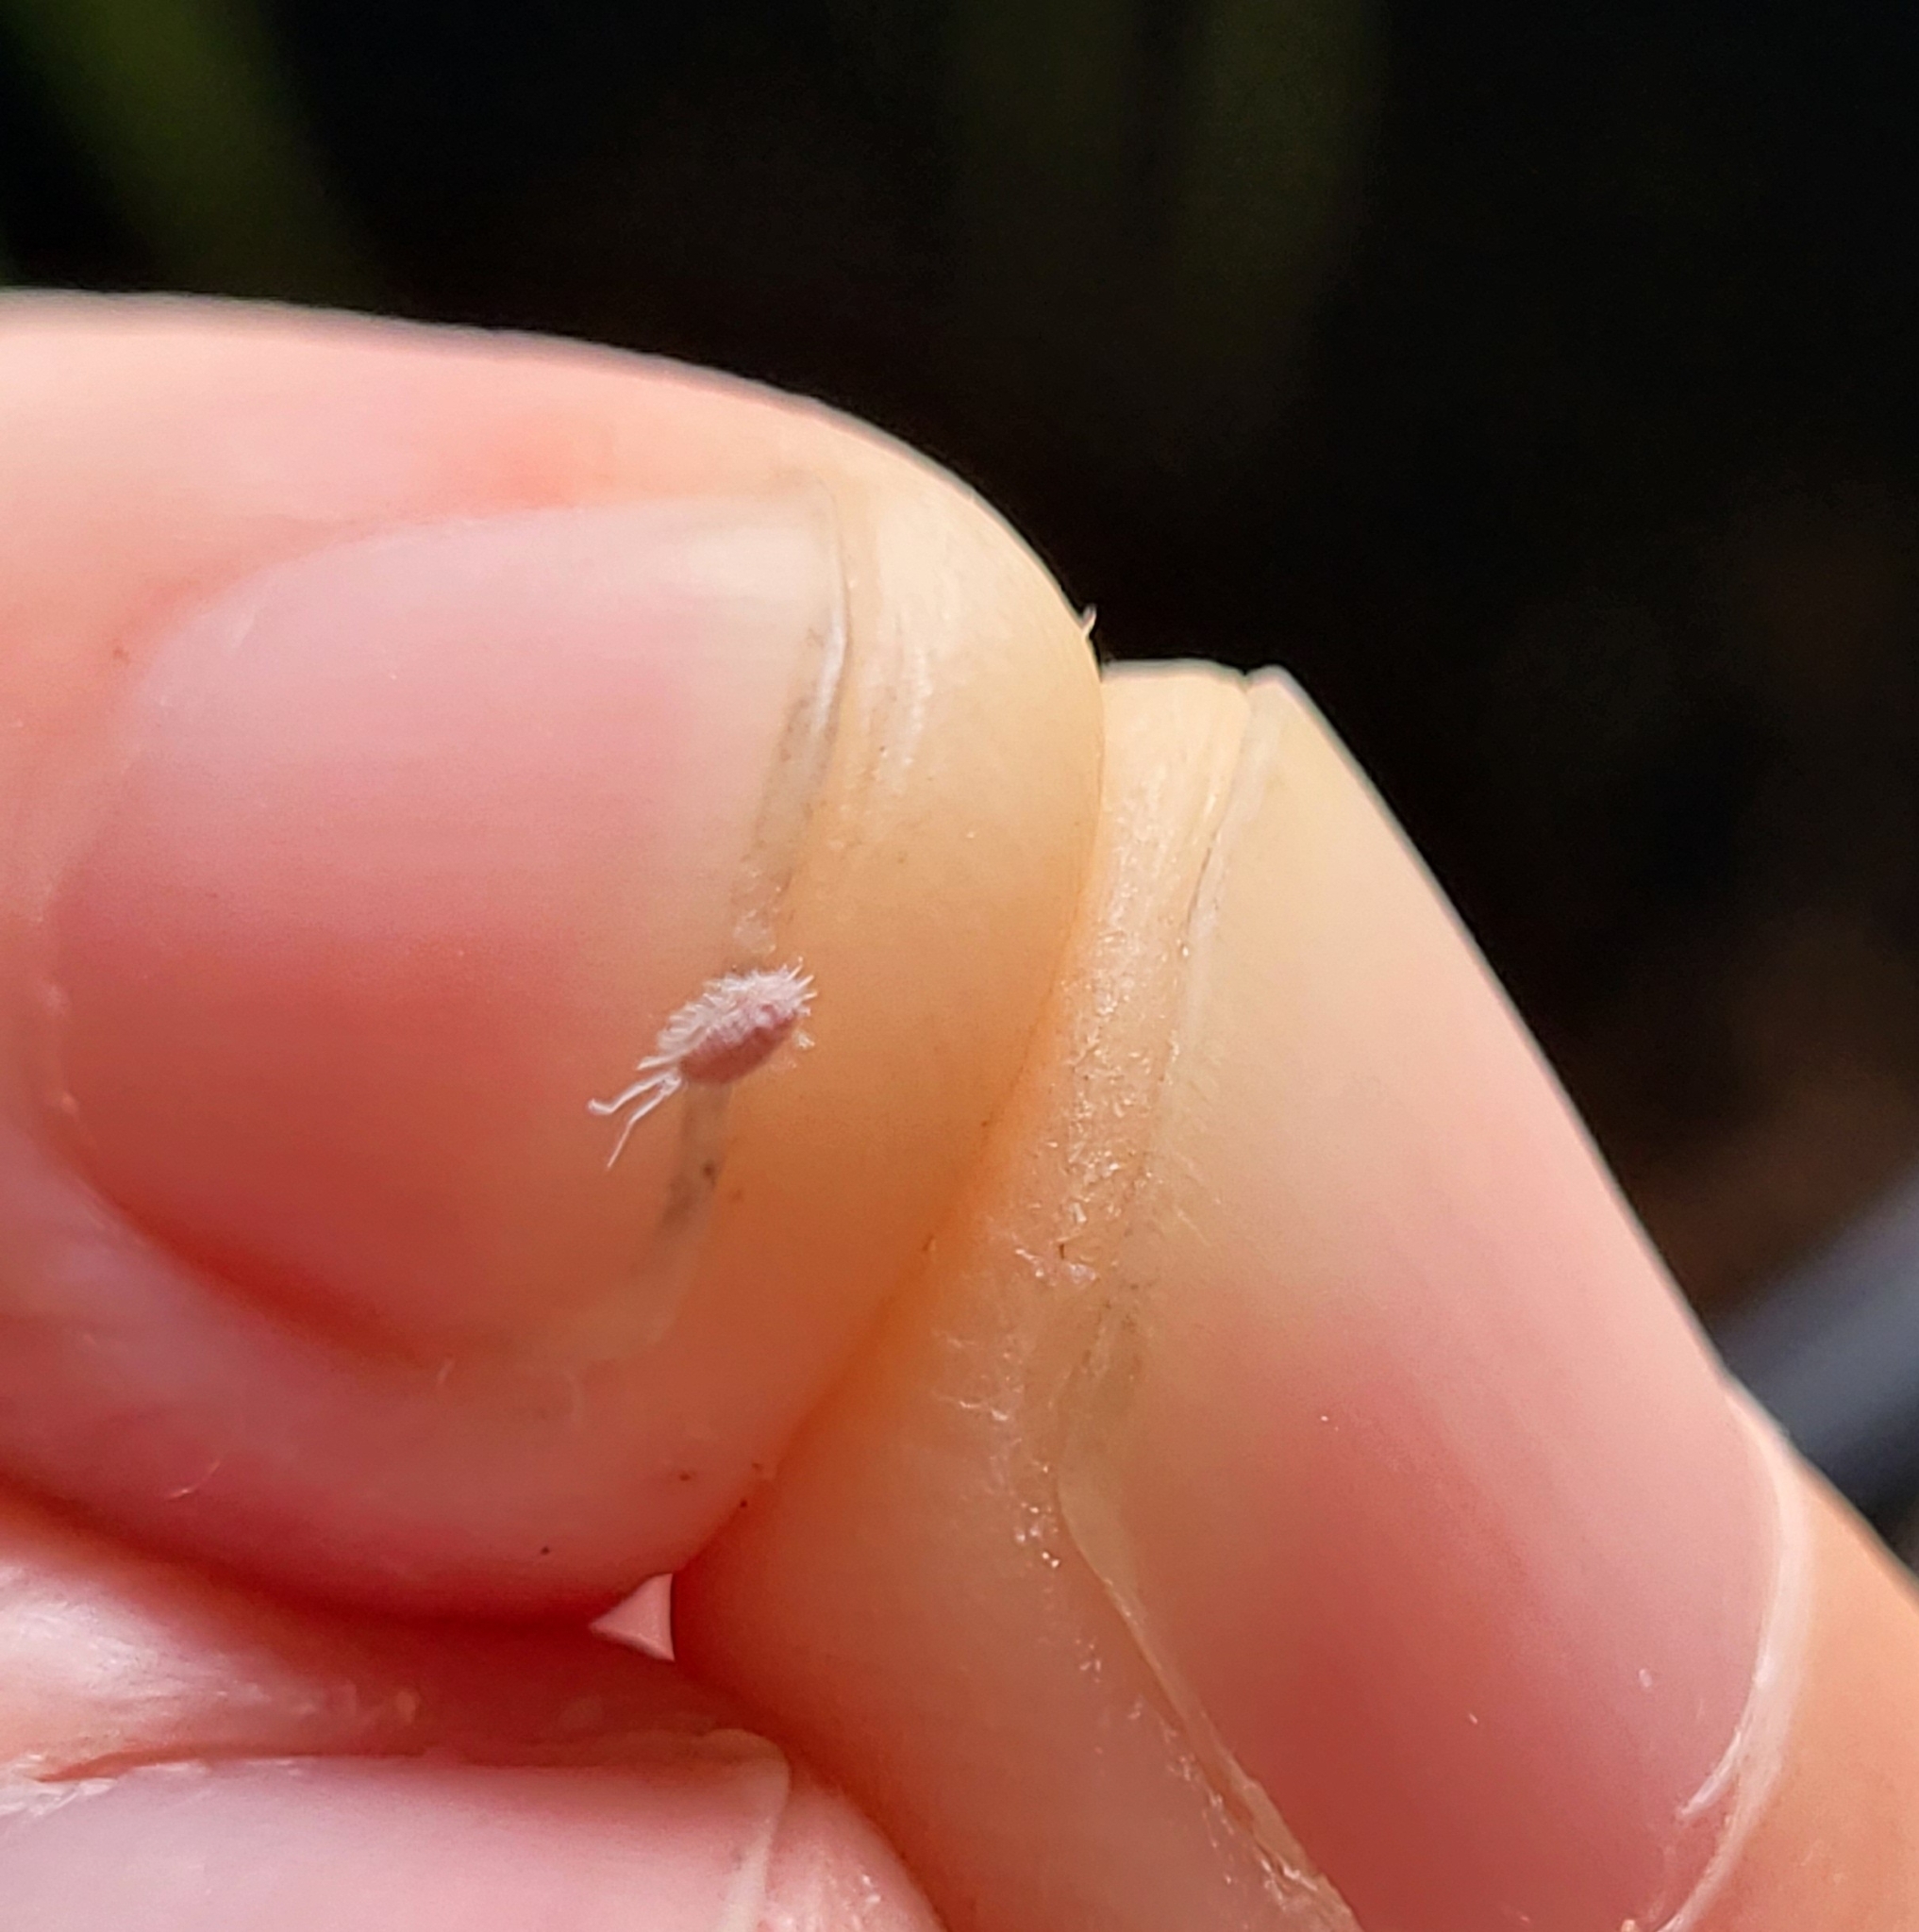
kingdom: Animalia
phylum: Arthropoda
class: Insecta
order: Hemiptera
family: Pseudococcidae
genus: Pseudococcus
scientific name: Pseudococcus longispinus
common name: Long-tailed mealybug
